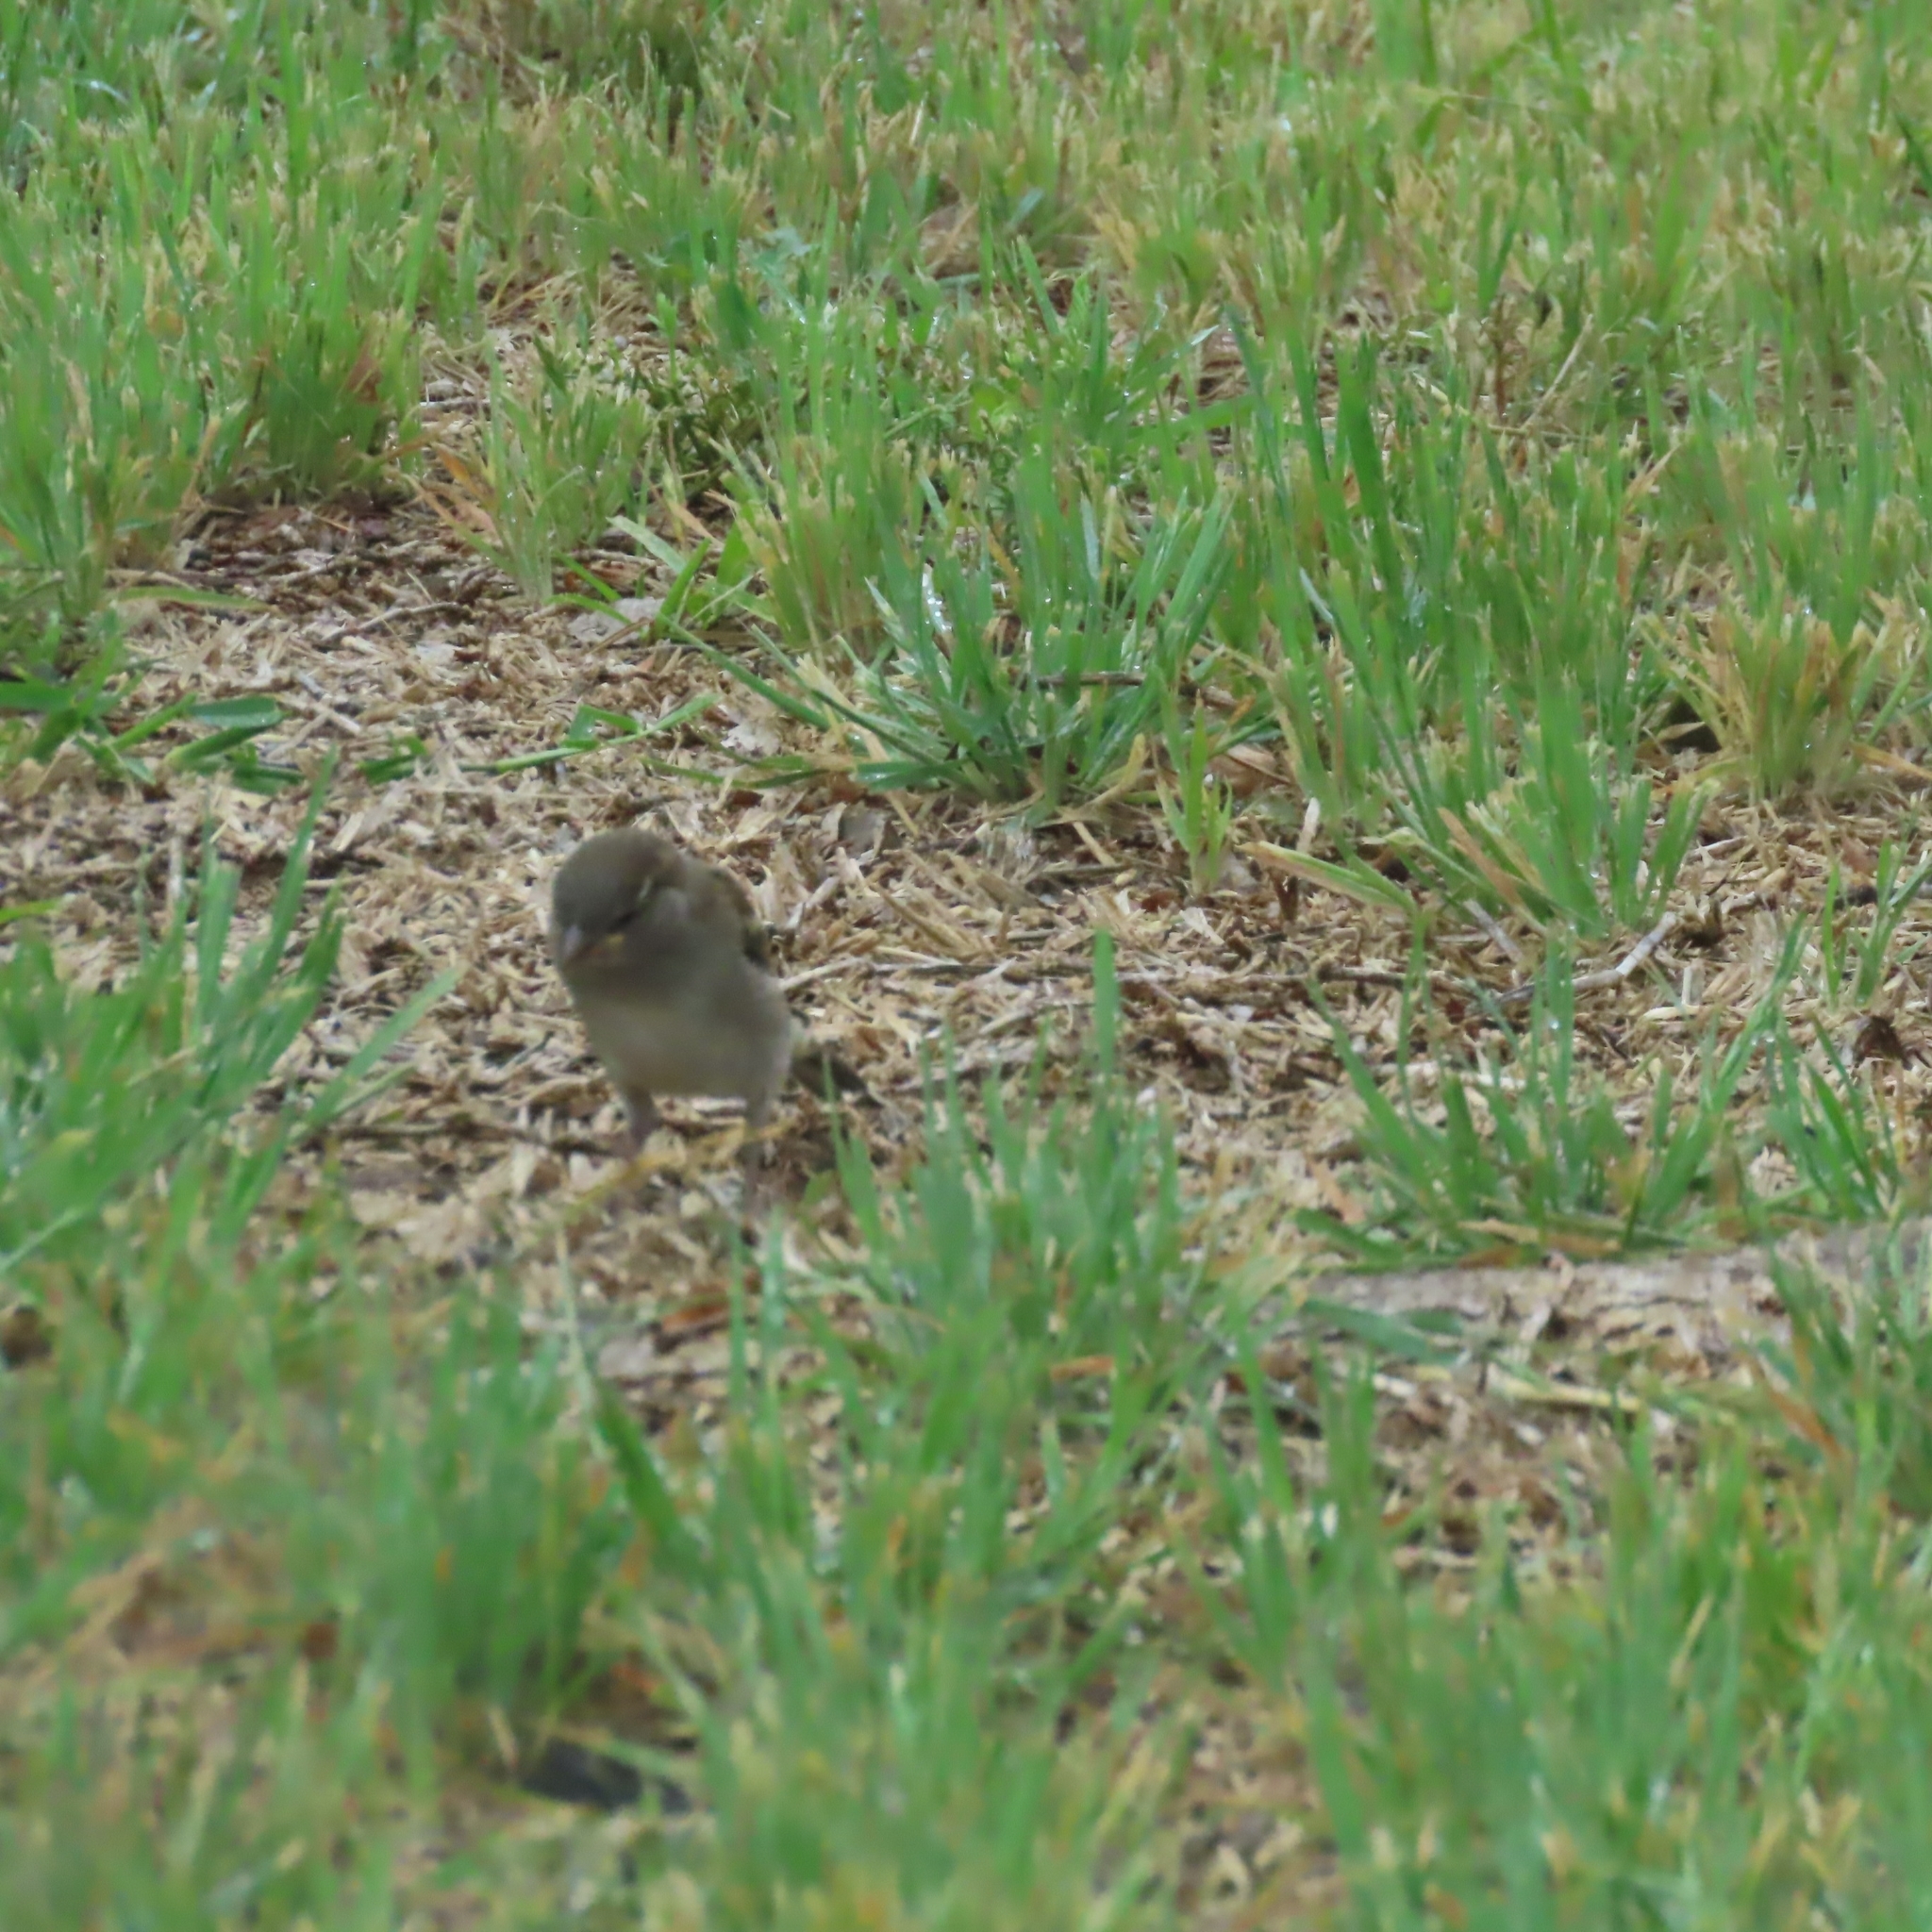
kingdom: Animalia
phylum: Chordata
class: Aves
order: Passeriformes
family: Passeridae
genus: Passer
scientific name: Passer domesticus
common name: House sparrow
